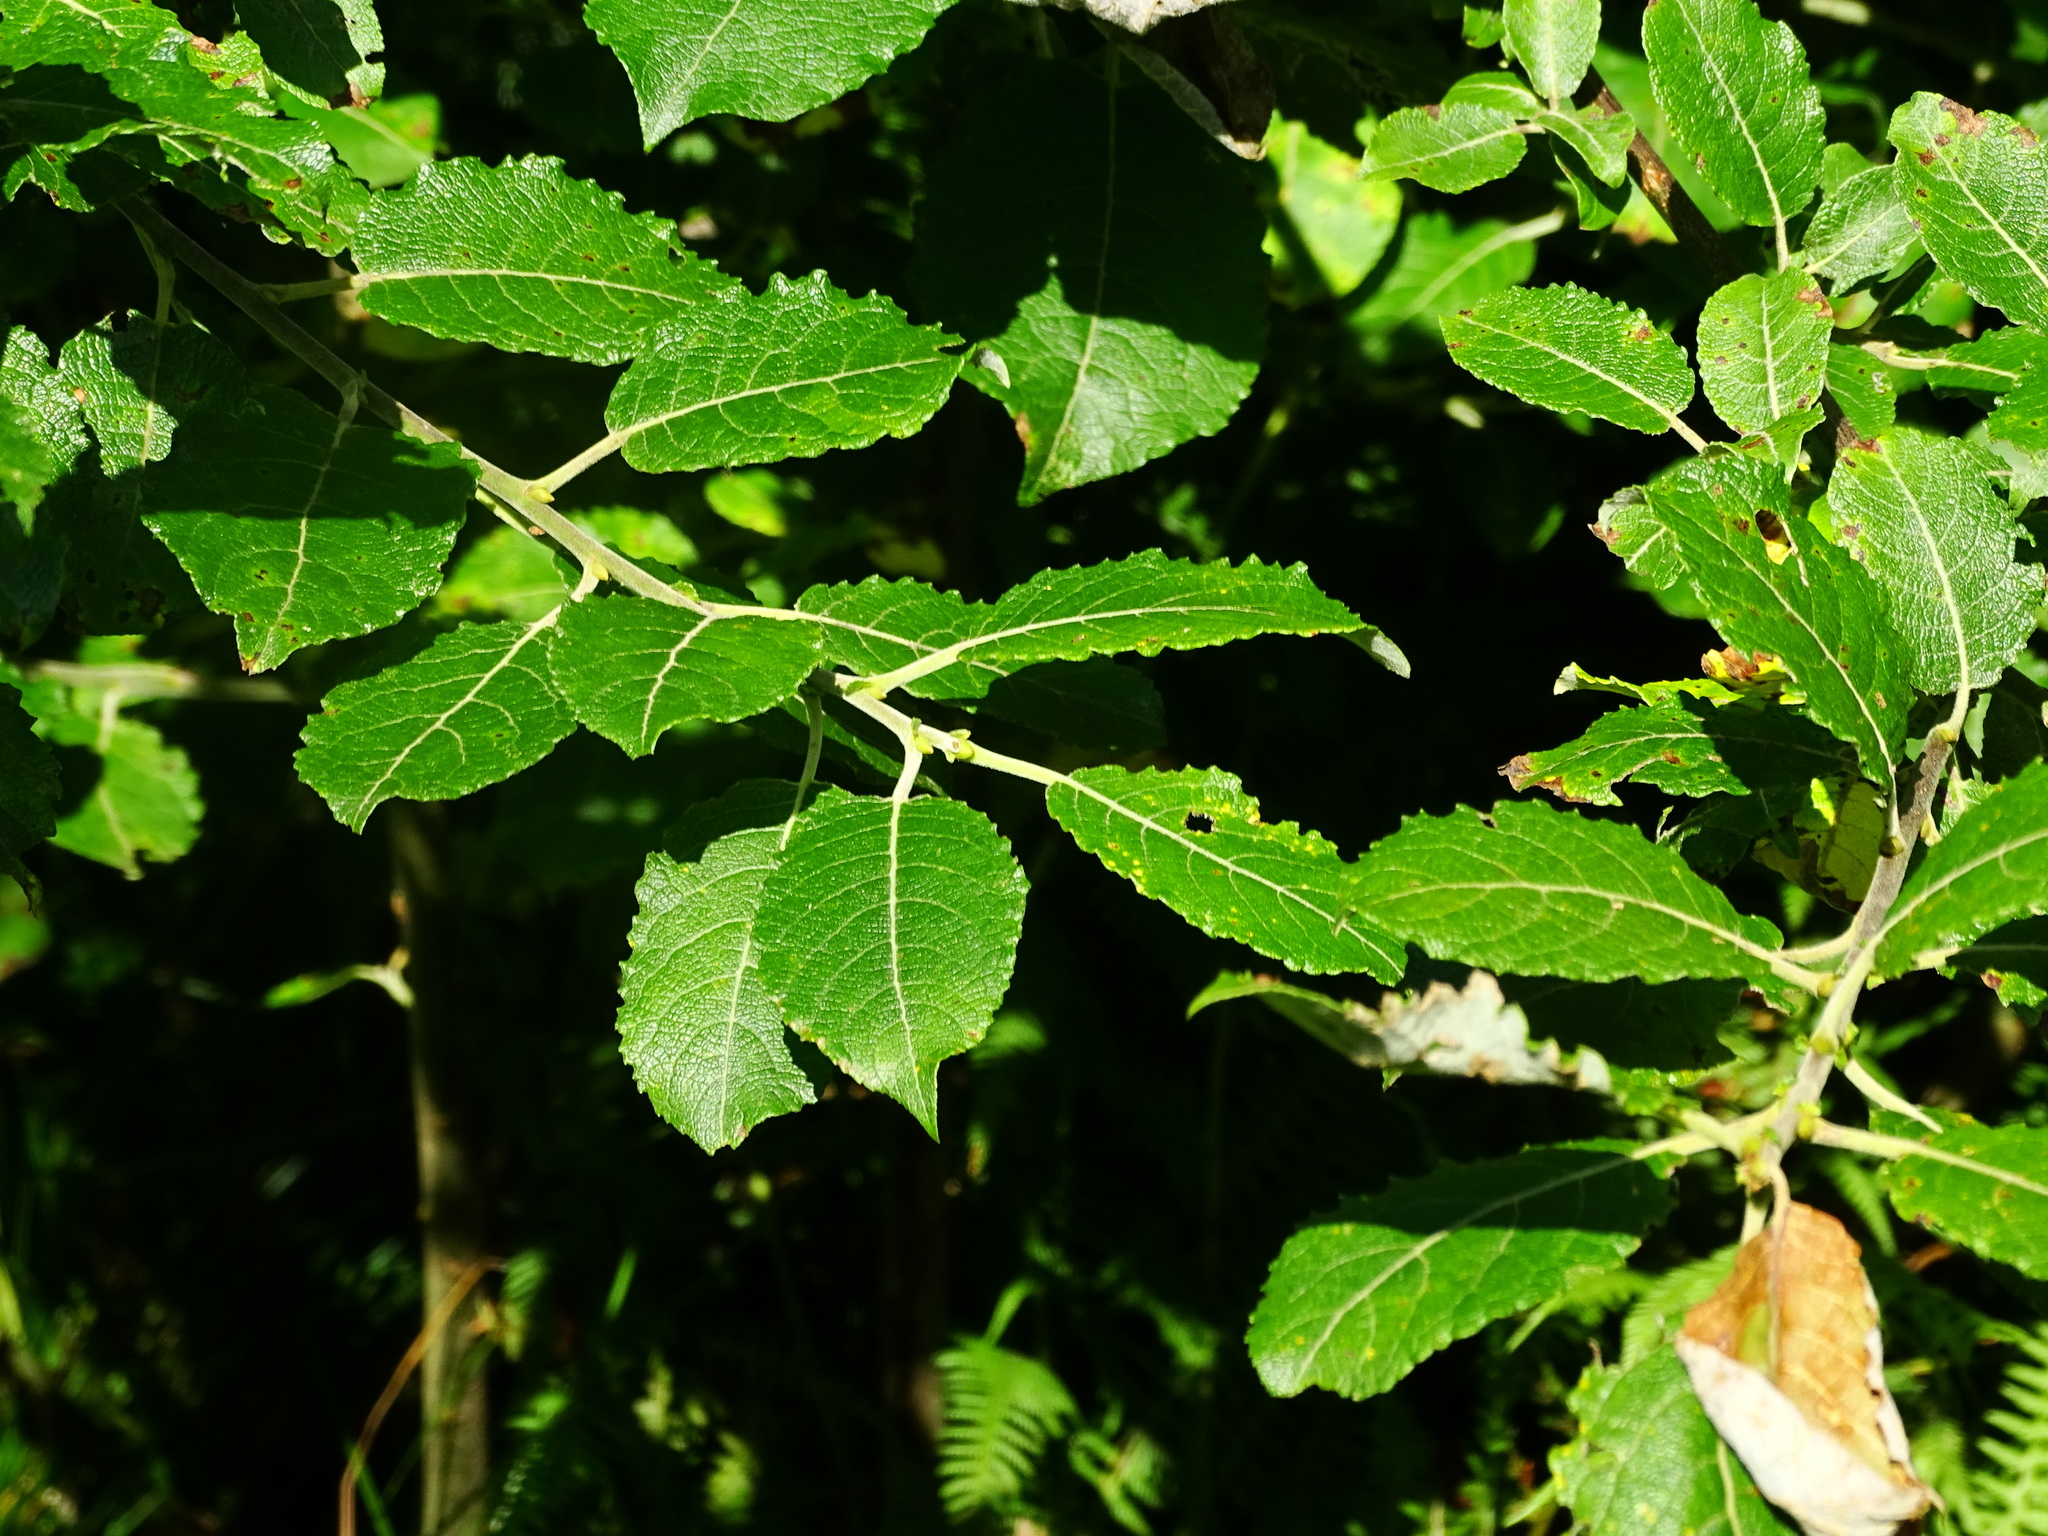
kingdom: Plantae
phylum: Tracheophyta
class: Magnoliopsida
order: Malpighiales
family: Salicaceae
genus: Salix
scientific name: Salix caprea
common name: Goat willow
